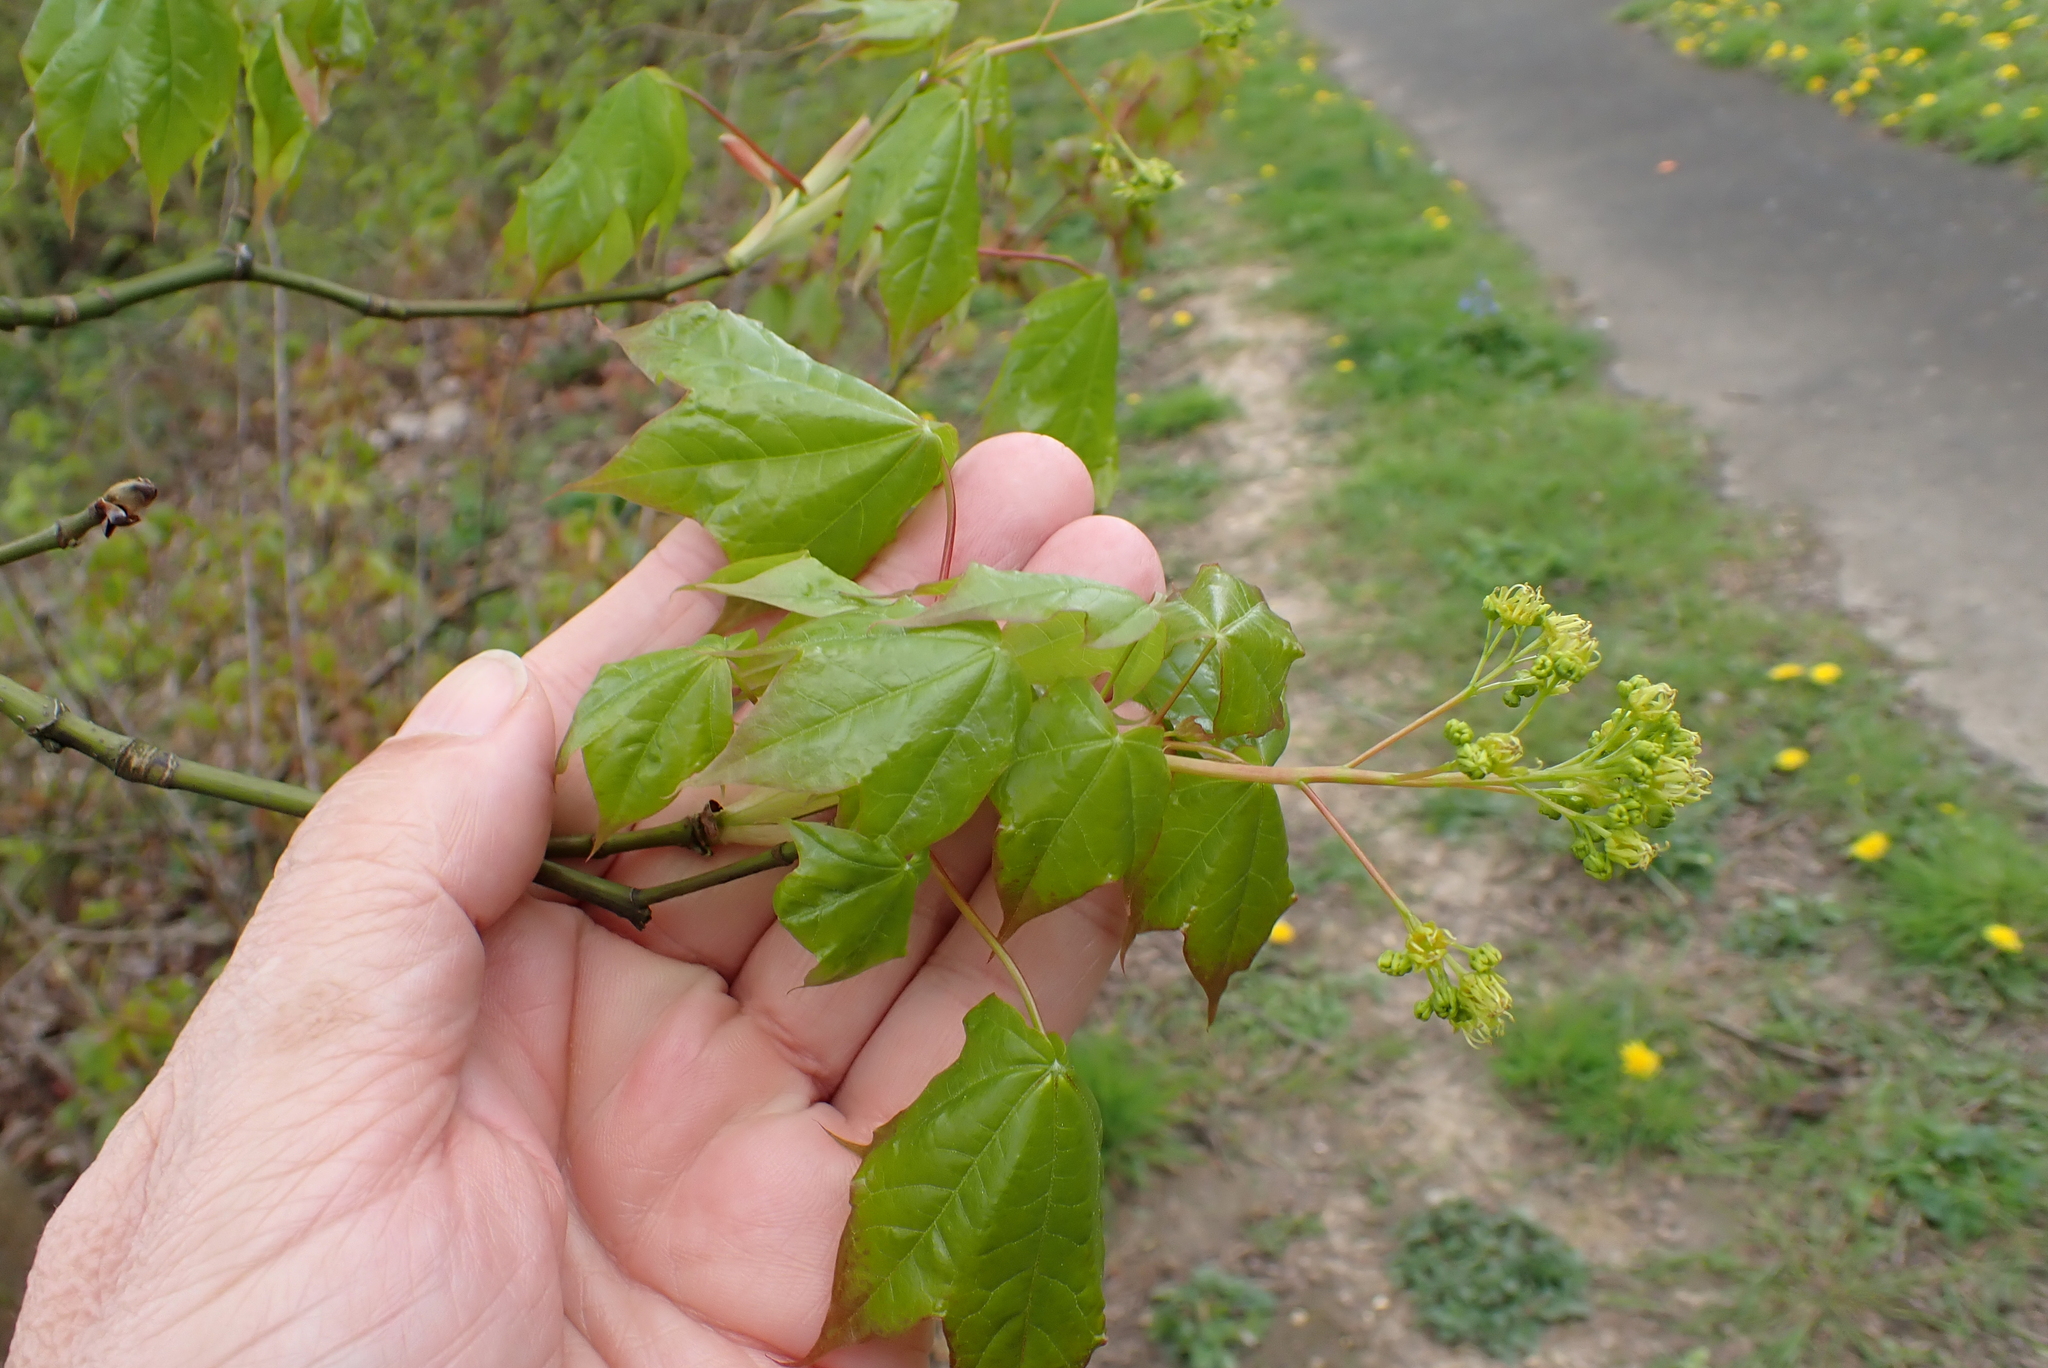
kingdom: Plantae
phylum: Tracheophyta
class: Magnoliopsida
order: Sapindales
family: Sapindaceae
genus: Acer
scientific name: Acer cappadocicum
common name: Cappadocian maple
